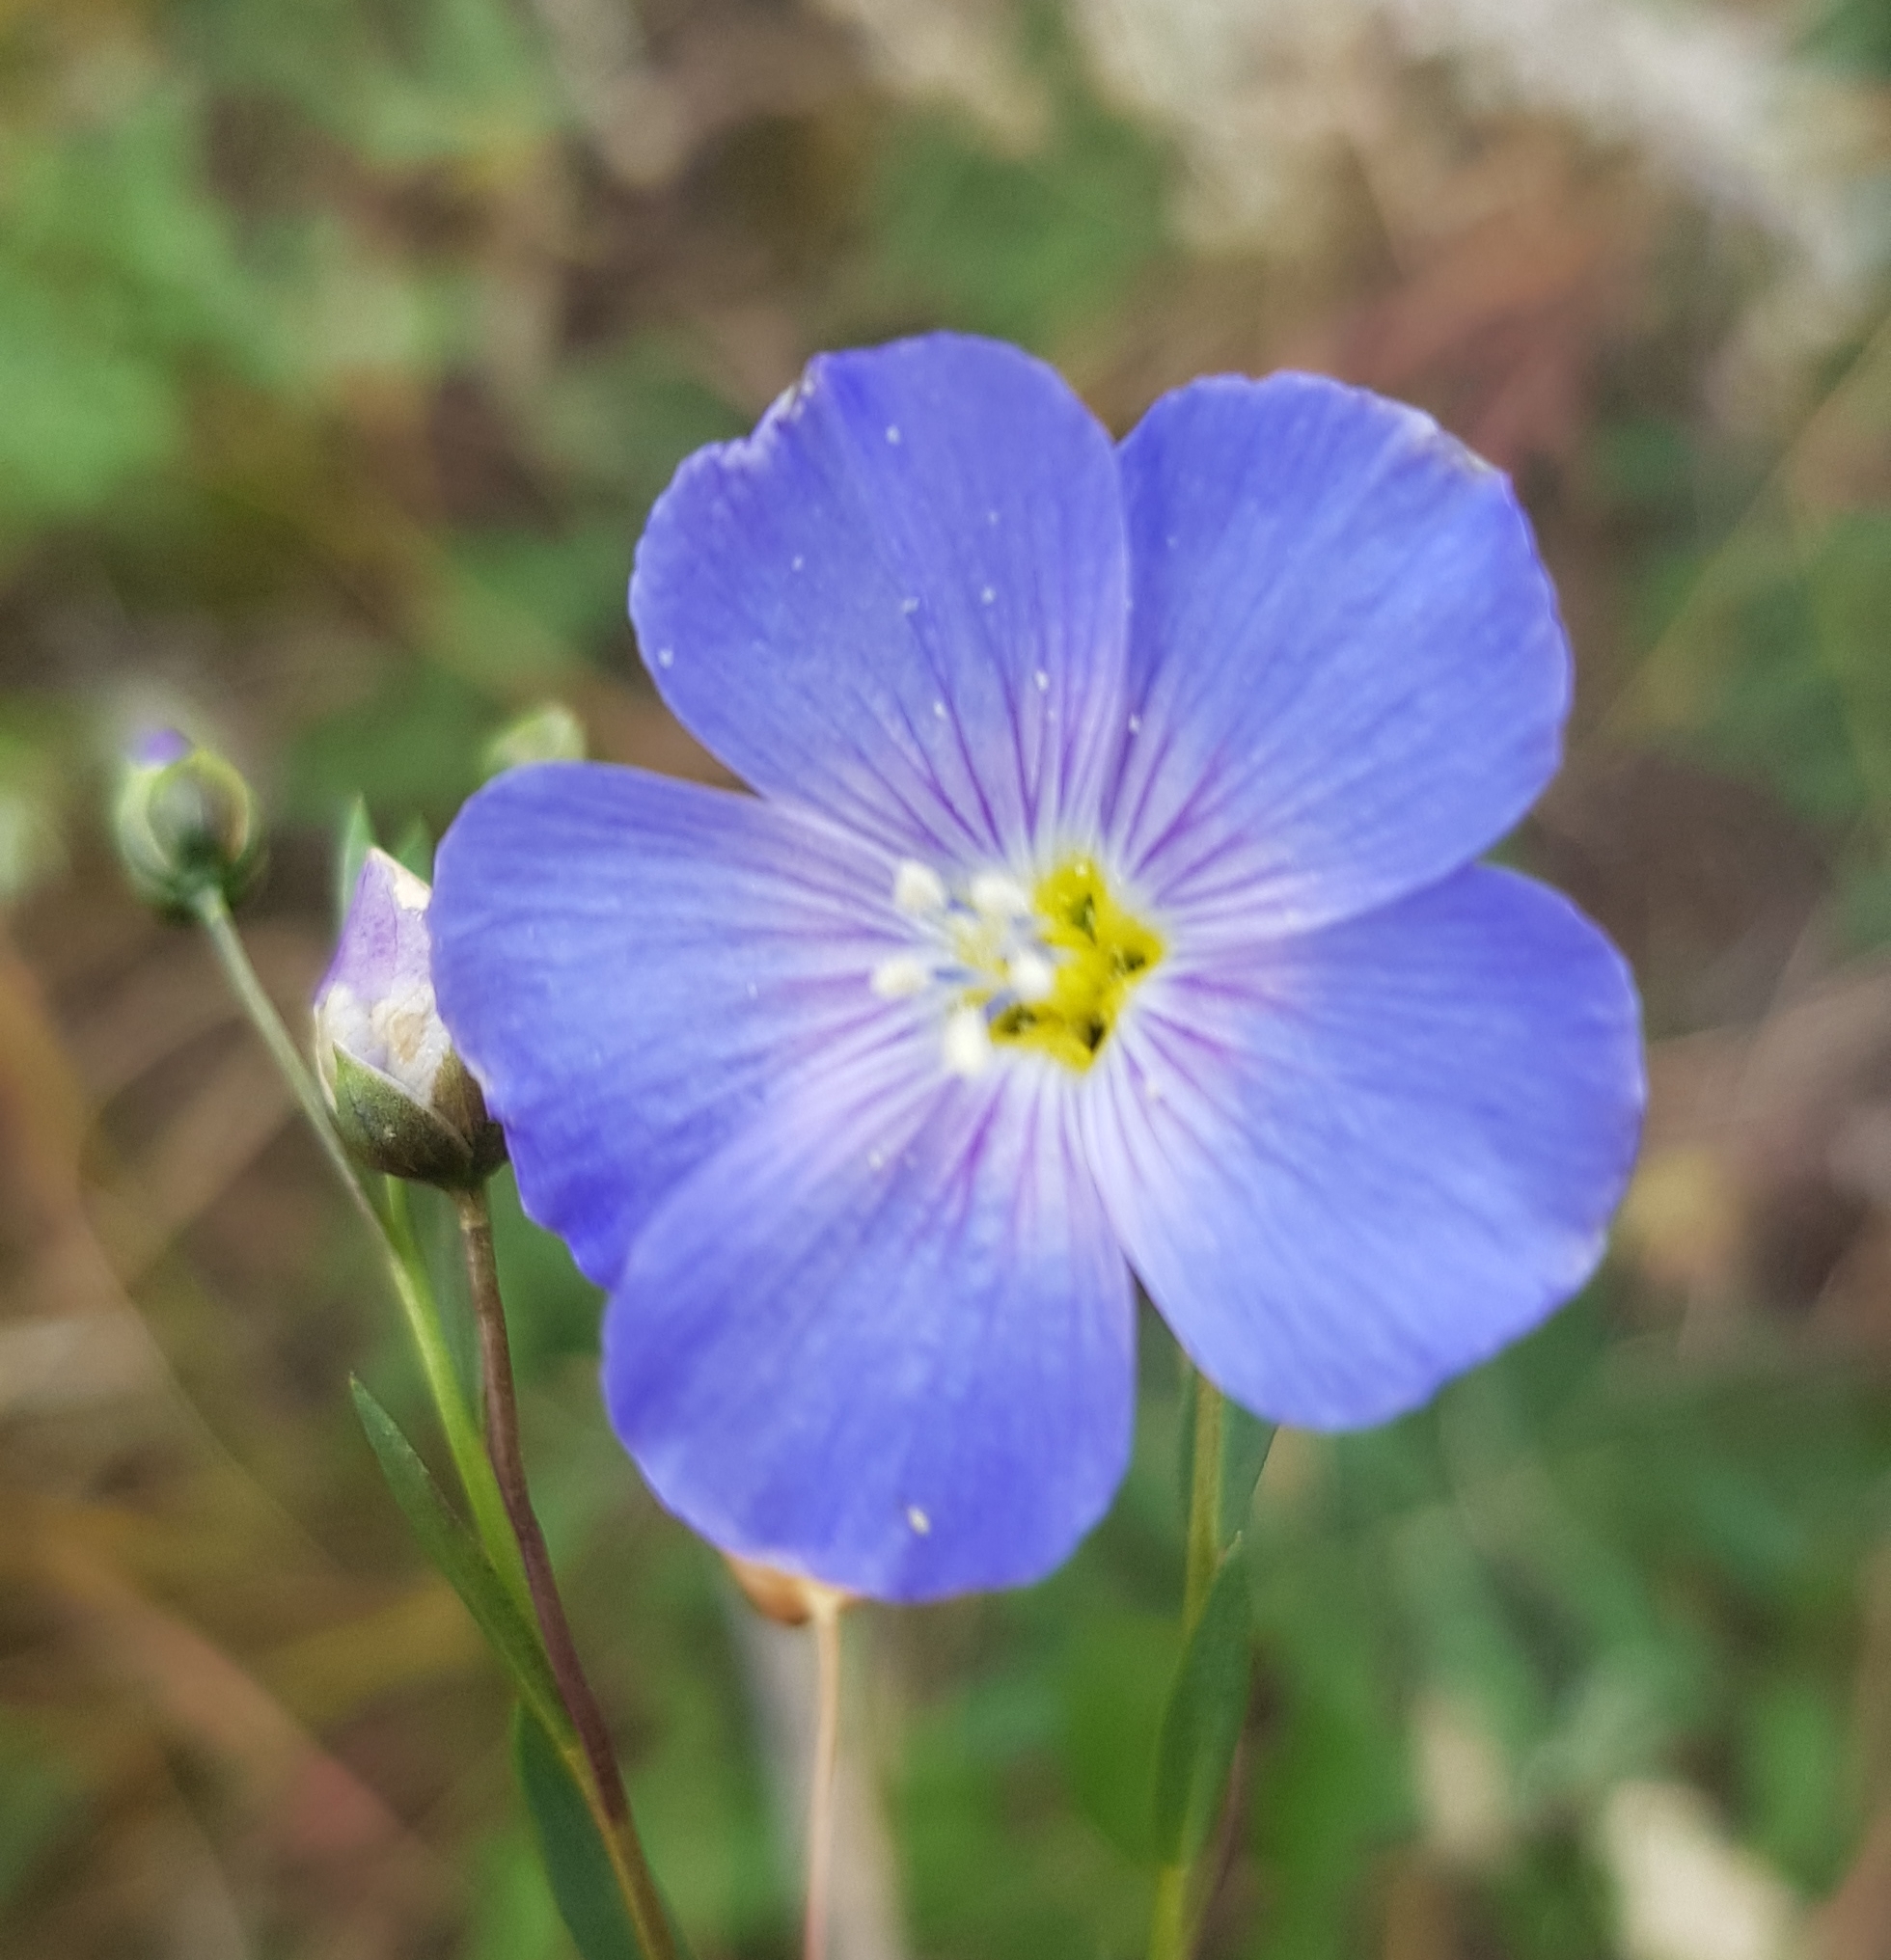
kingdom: Plantae
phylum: Tracheophyta
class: Magnoliopsida
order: Malpighiales
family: Linaceae
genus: Linum
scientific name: Linum nutans
